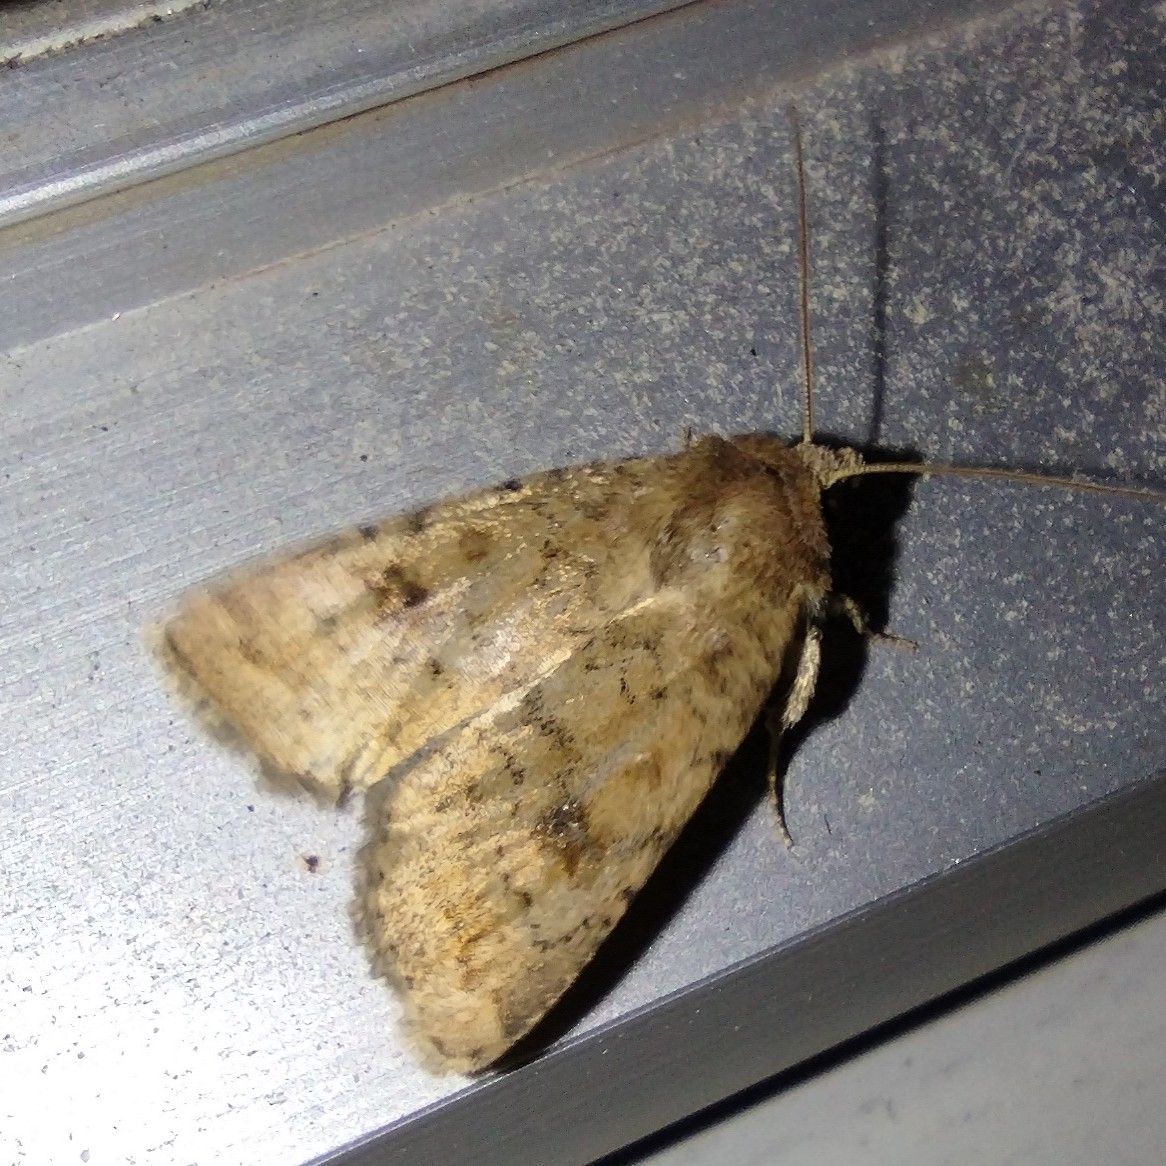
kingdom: Animalia
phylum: Arthropoda
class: Insecta
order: Lepidoptera
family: Noctuidae
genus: Caradrina
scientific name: Caradrina morpheus
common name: Mottled rustic
